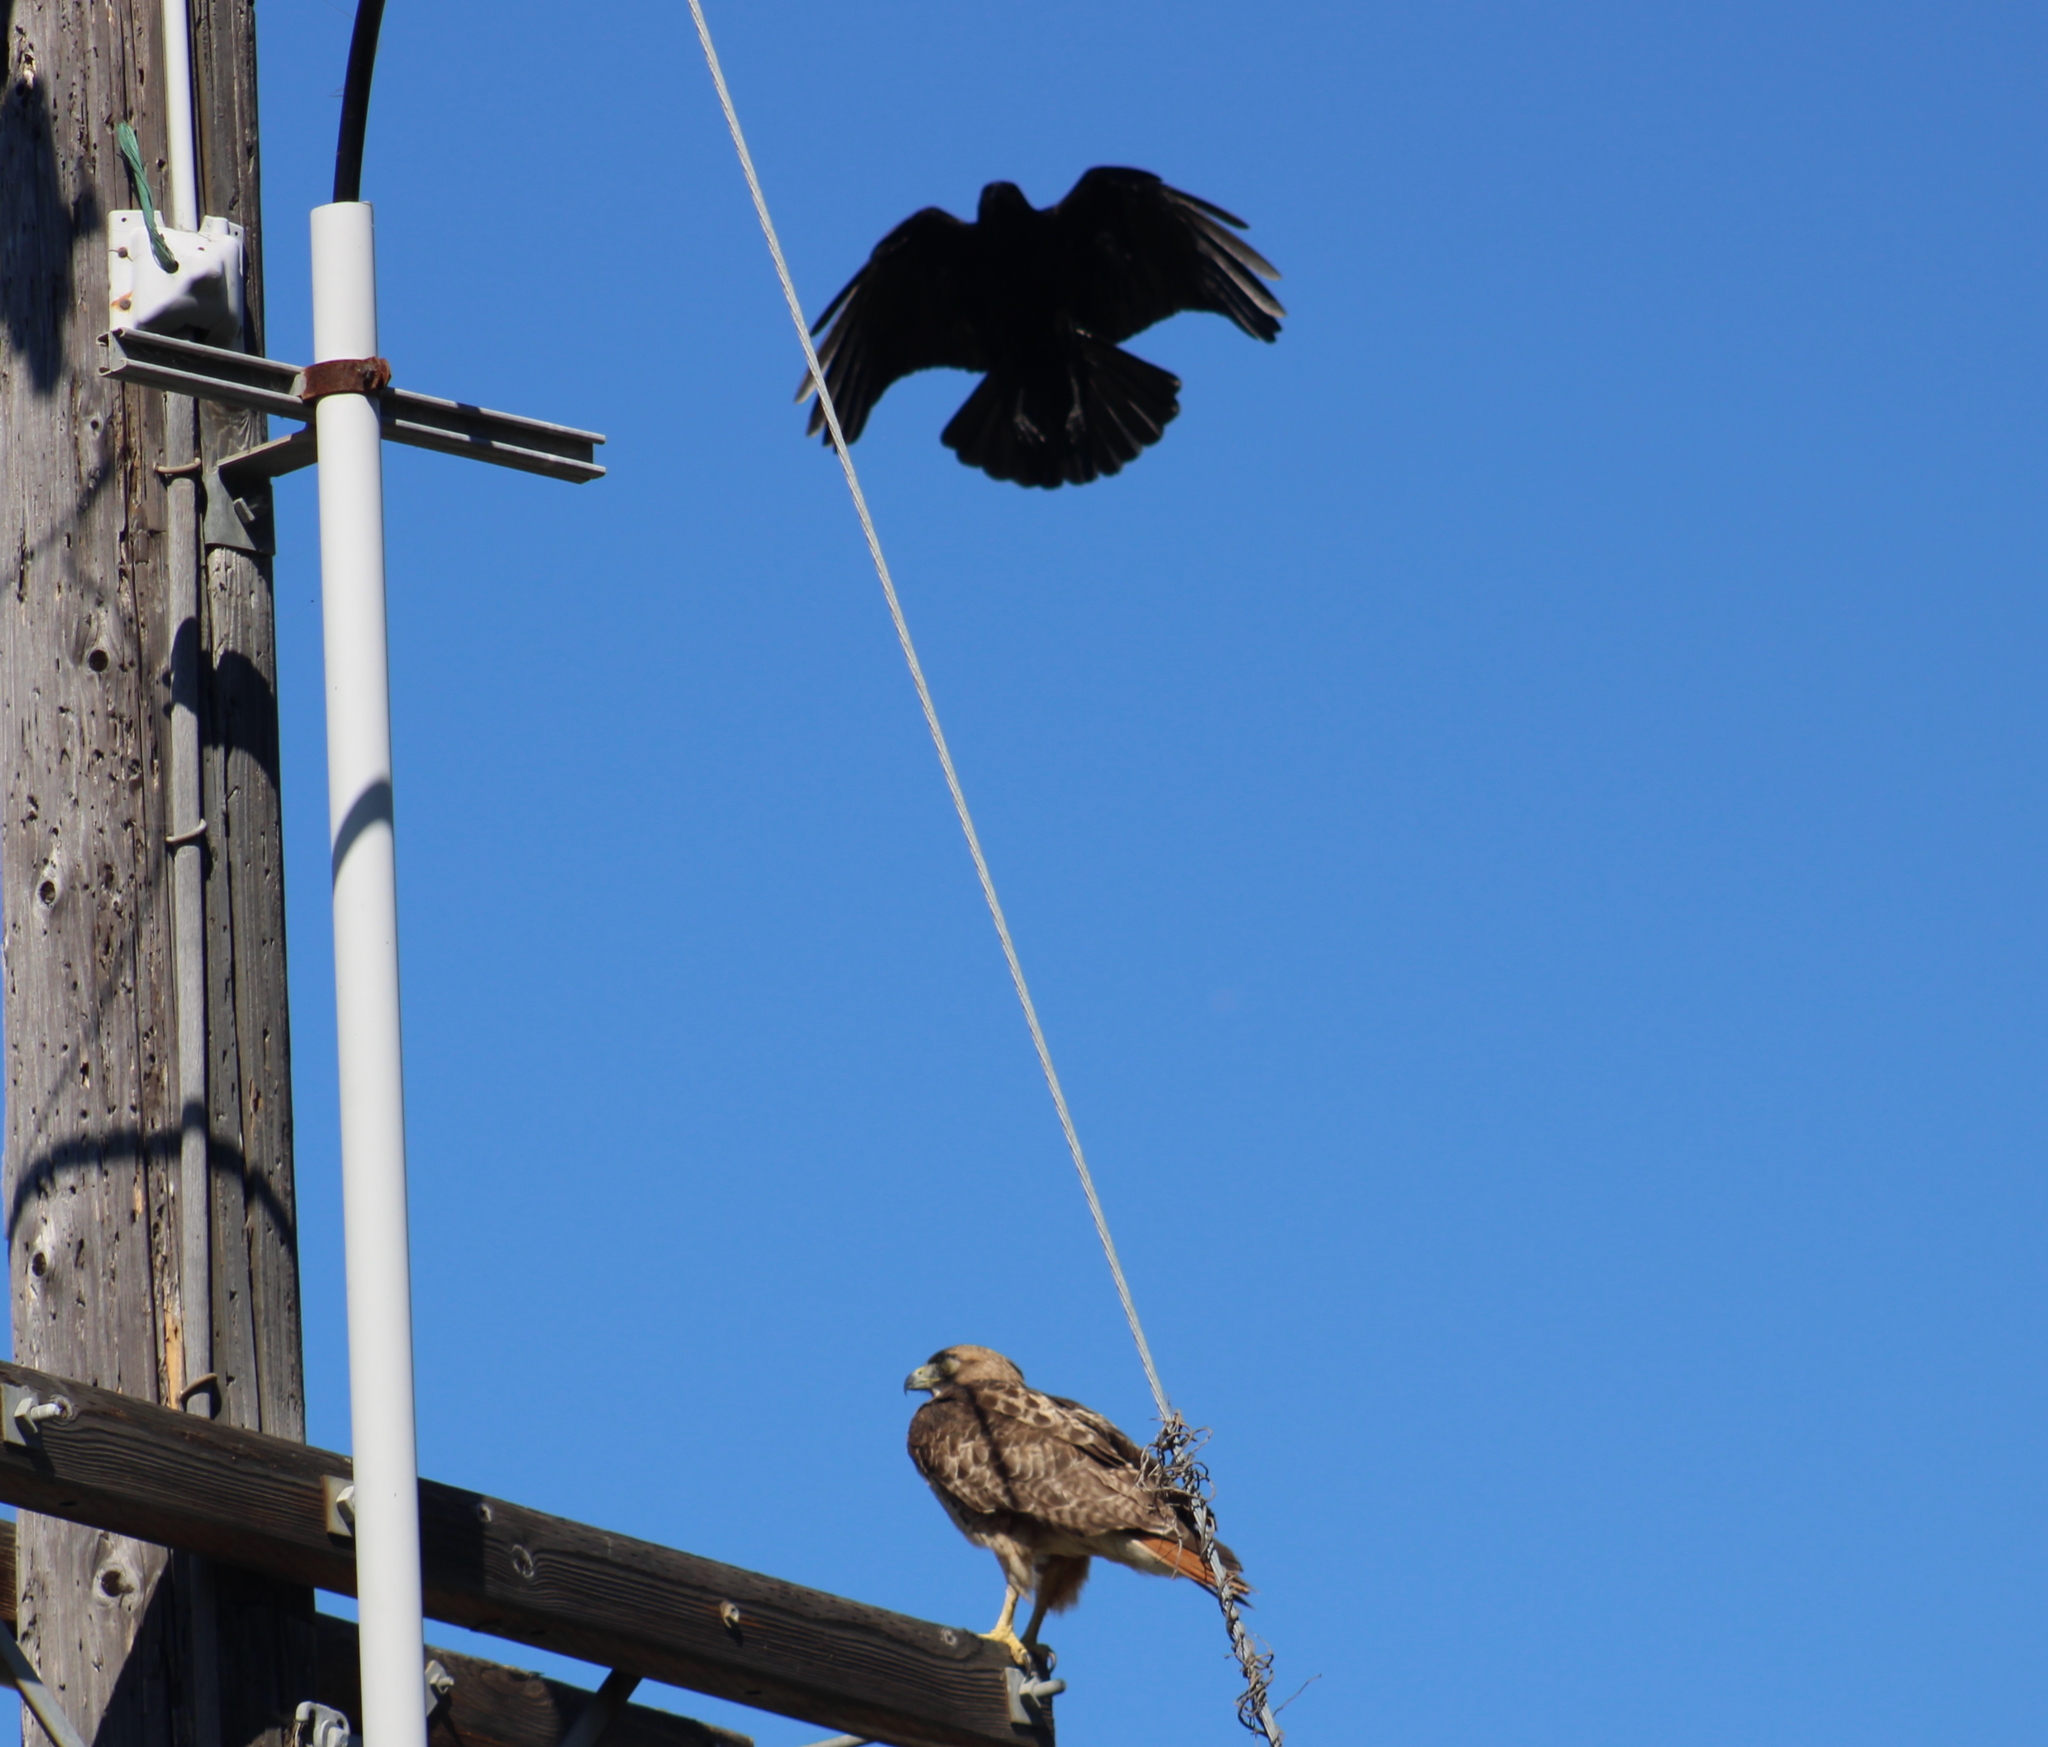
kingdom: Animalia
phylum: Chordata
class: Aves
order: Accipitriformes
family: Accipitridae
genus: Buteo
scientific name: Buteo jamaicensis
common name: Red-tailed hawk
